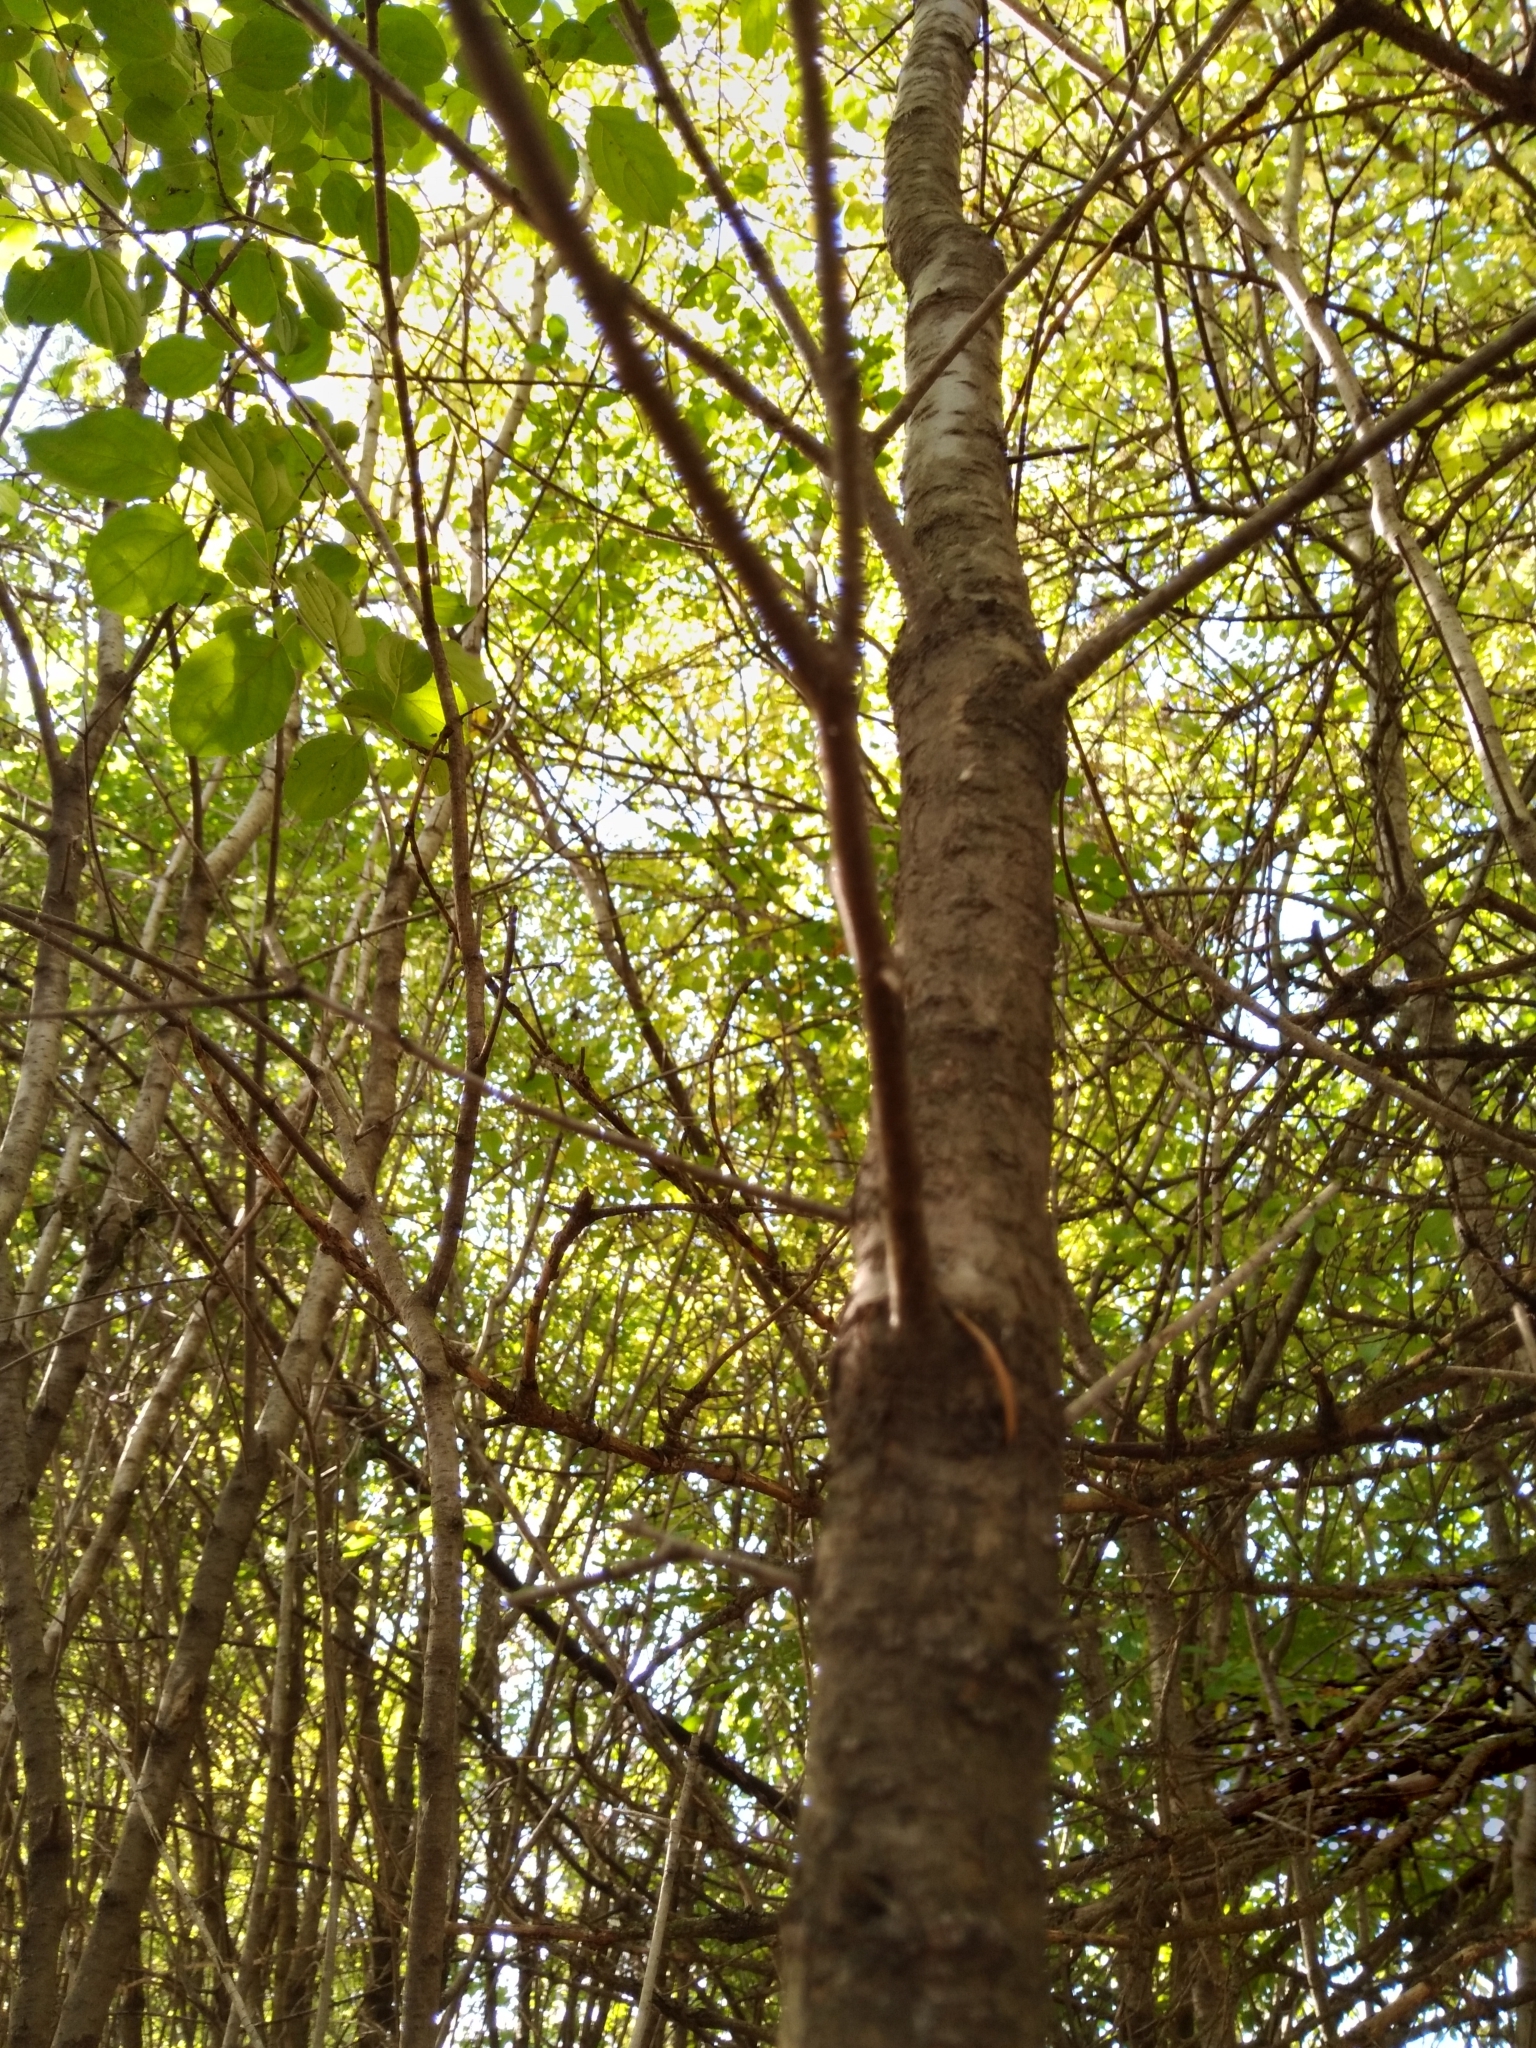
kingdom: Plantae
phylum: Tracheophyta
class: Magnoliopsida
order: Rosales
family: Rhamnaceae
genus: Rhamnus
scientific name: Rhamnus cathartica
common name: Common buckthorn
